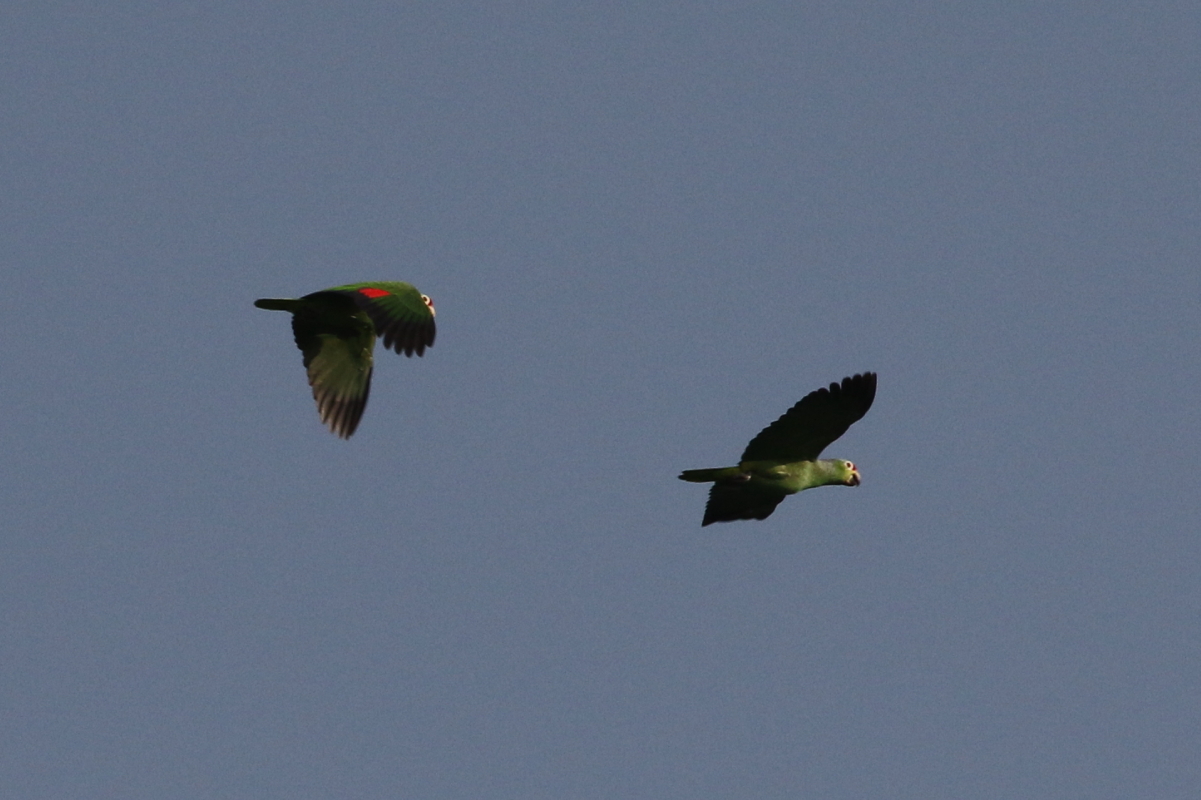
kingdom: Animalia
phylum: Chordata
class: Aves
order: Psittaciformes
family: Psittacidae
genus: Amazona
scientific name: Amazona autumnalis
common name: Red-lored amazon
